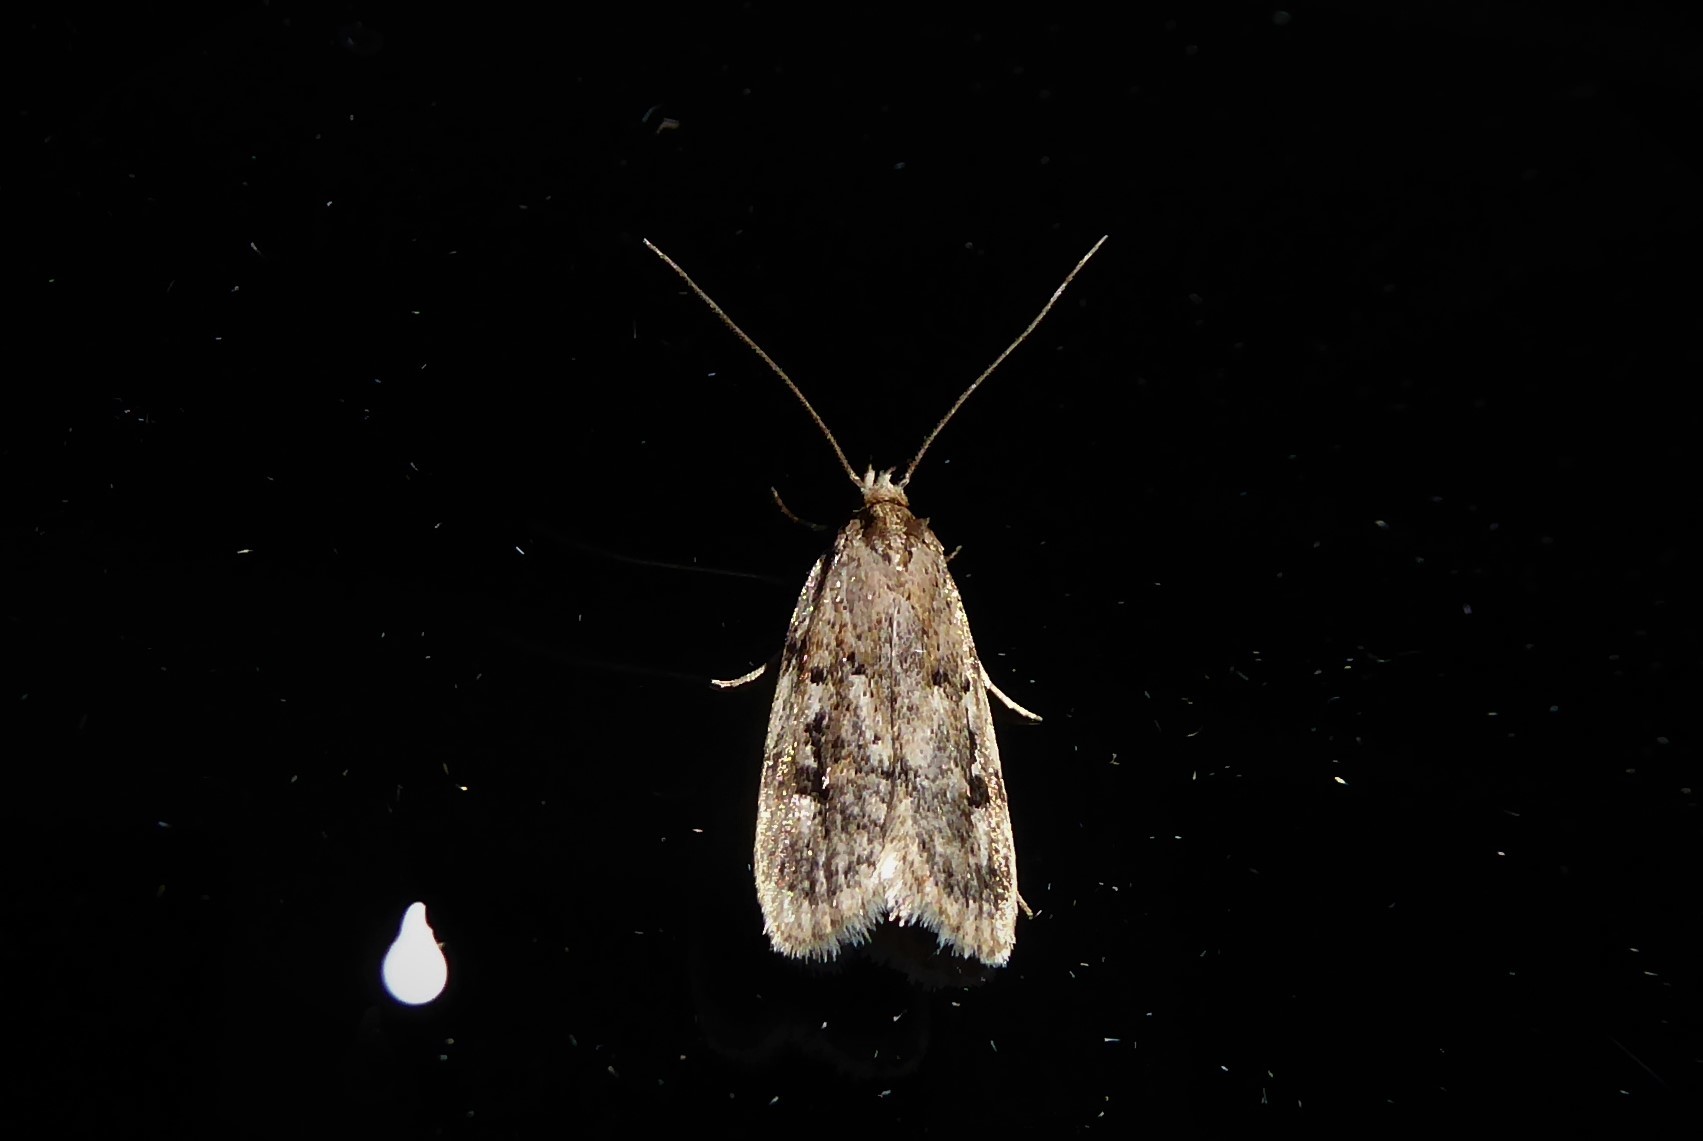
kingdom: Animalia
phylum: Arthropoda
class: Insecta
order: Lepidoptera
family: Oecophoridae
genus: Barea
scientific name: Barea exarcha
